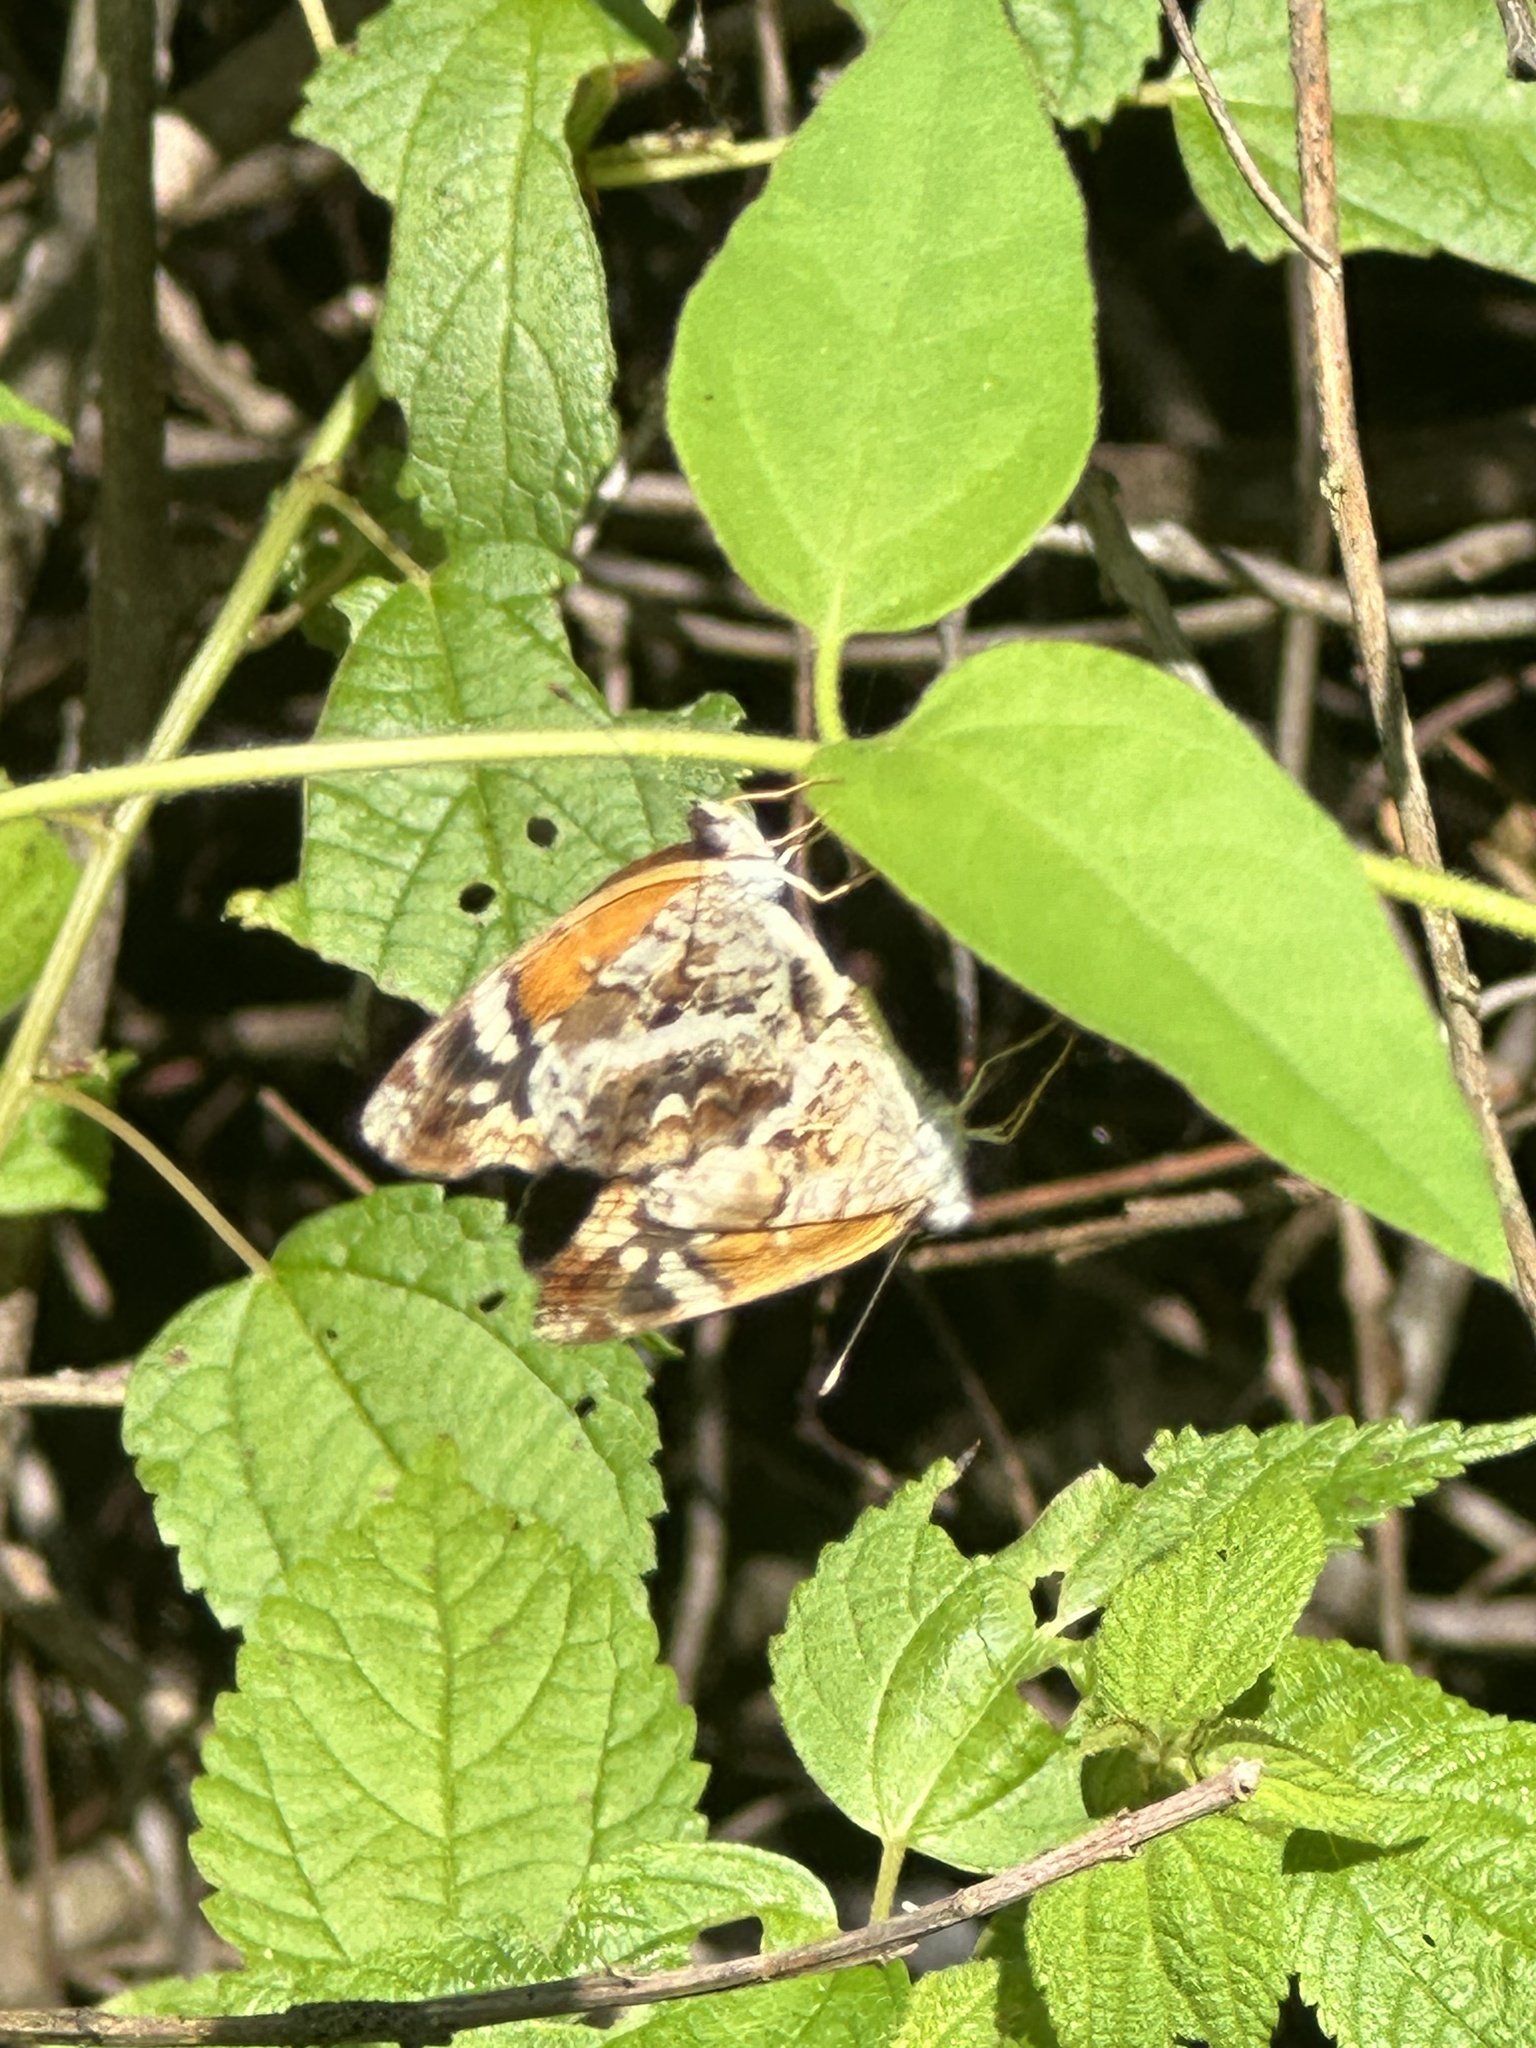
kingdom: Animalia
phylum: Arthropoda
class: Insecta
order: Lepidoptera
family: Nymphalidae
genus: Anthanassa
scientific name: Anthanassa taxana
